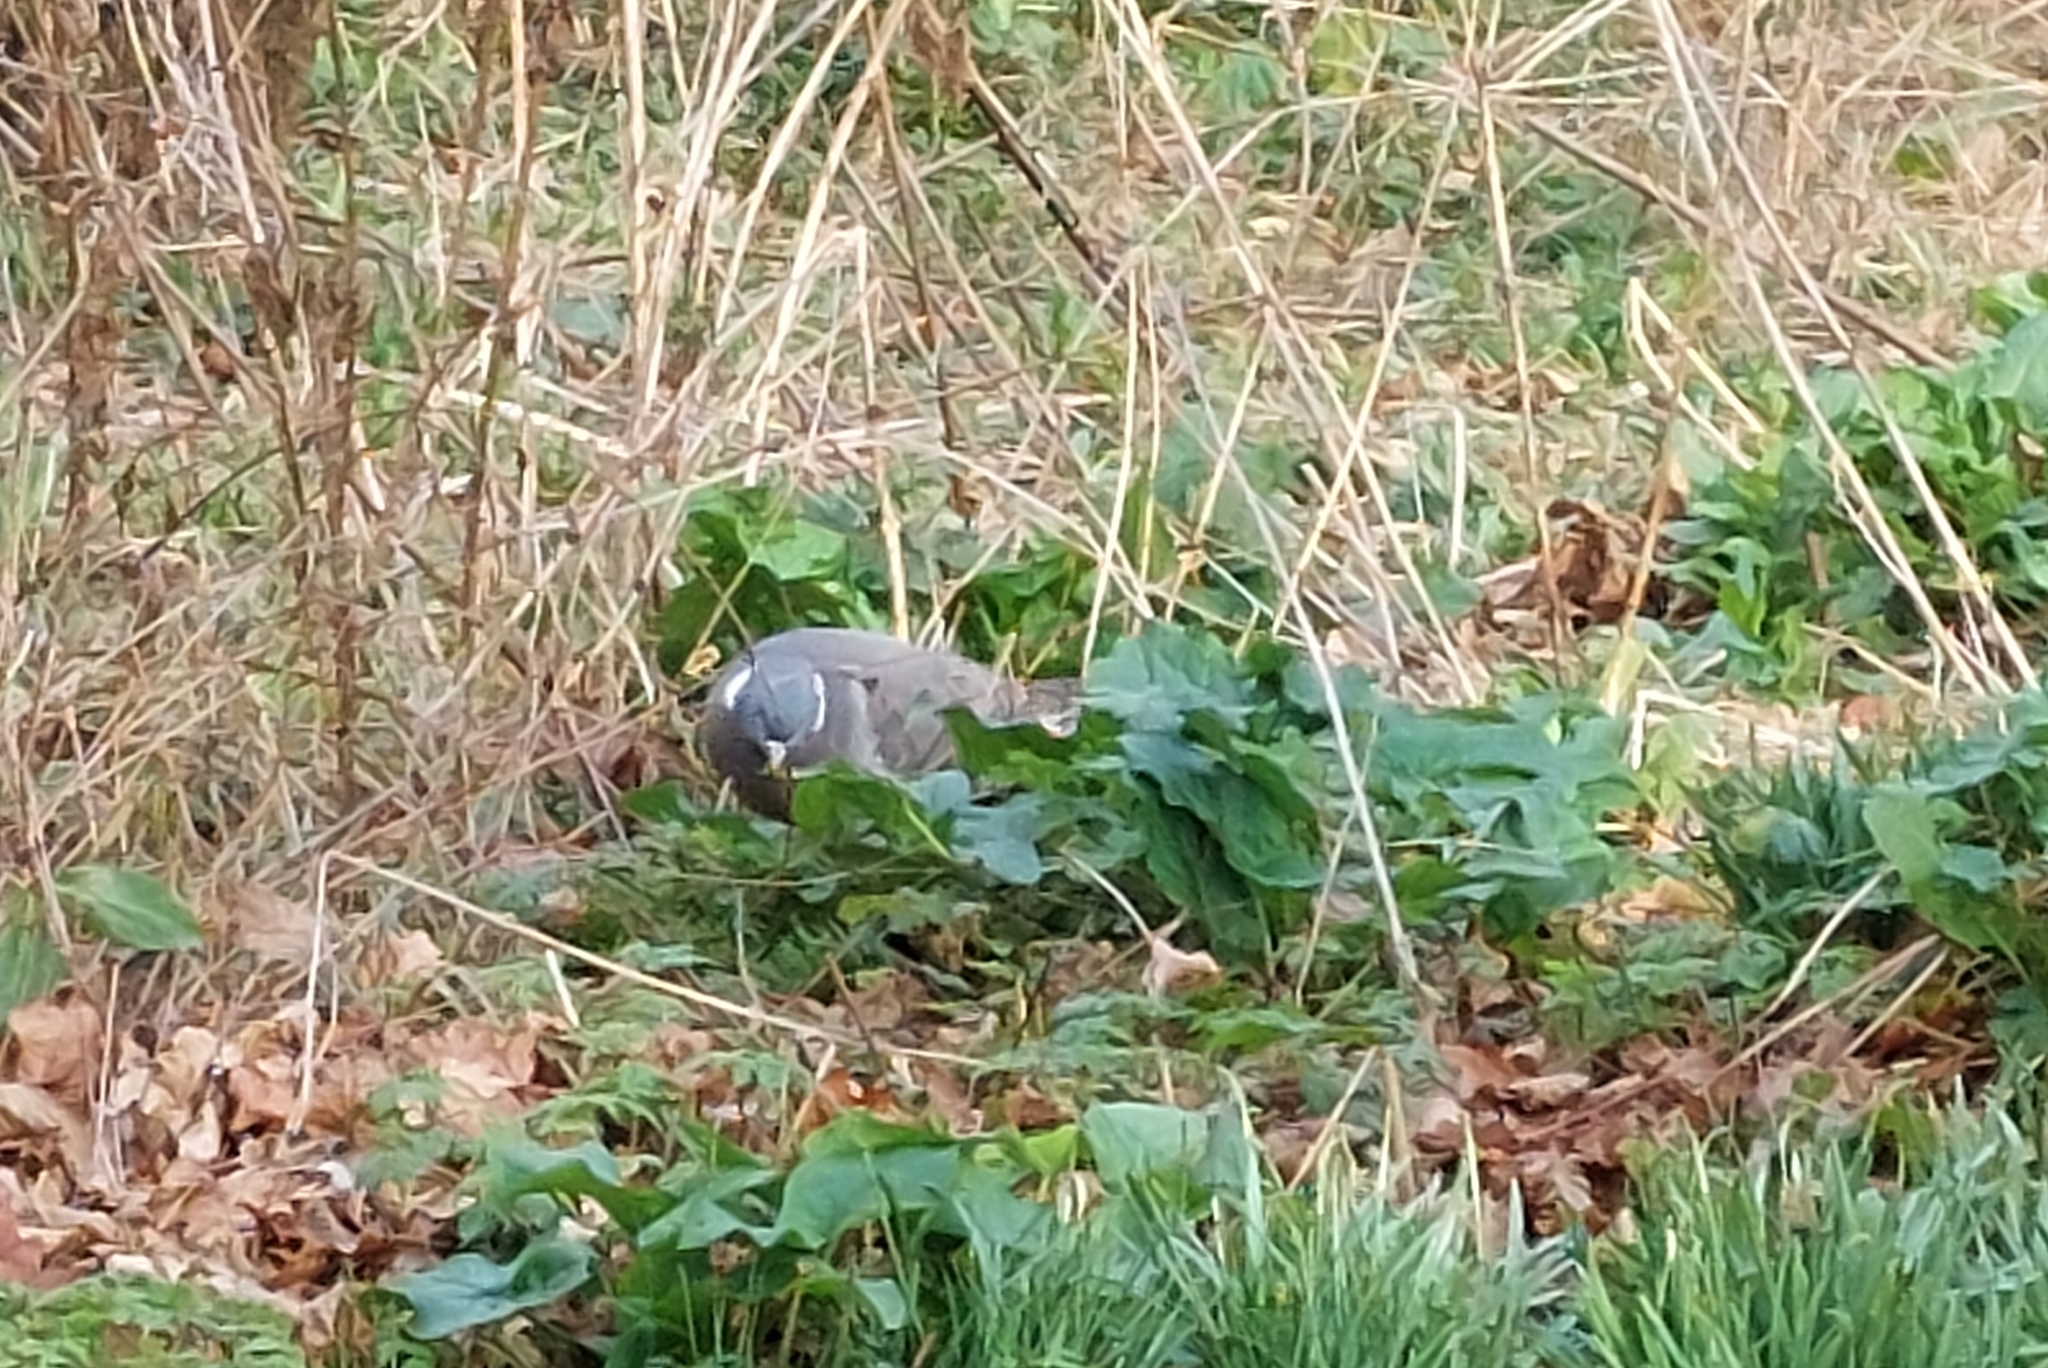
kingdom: Animalia
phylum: Chordata
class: Aves
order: Columbiformes
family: Columbidae
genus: Columba
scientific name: Columba palumbus
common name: Common wood pigeon
